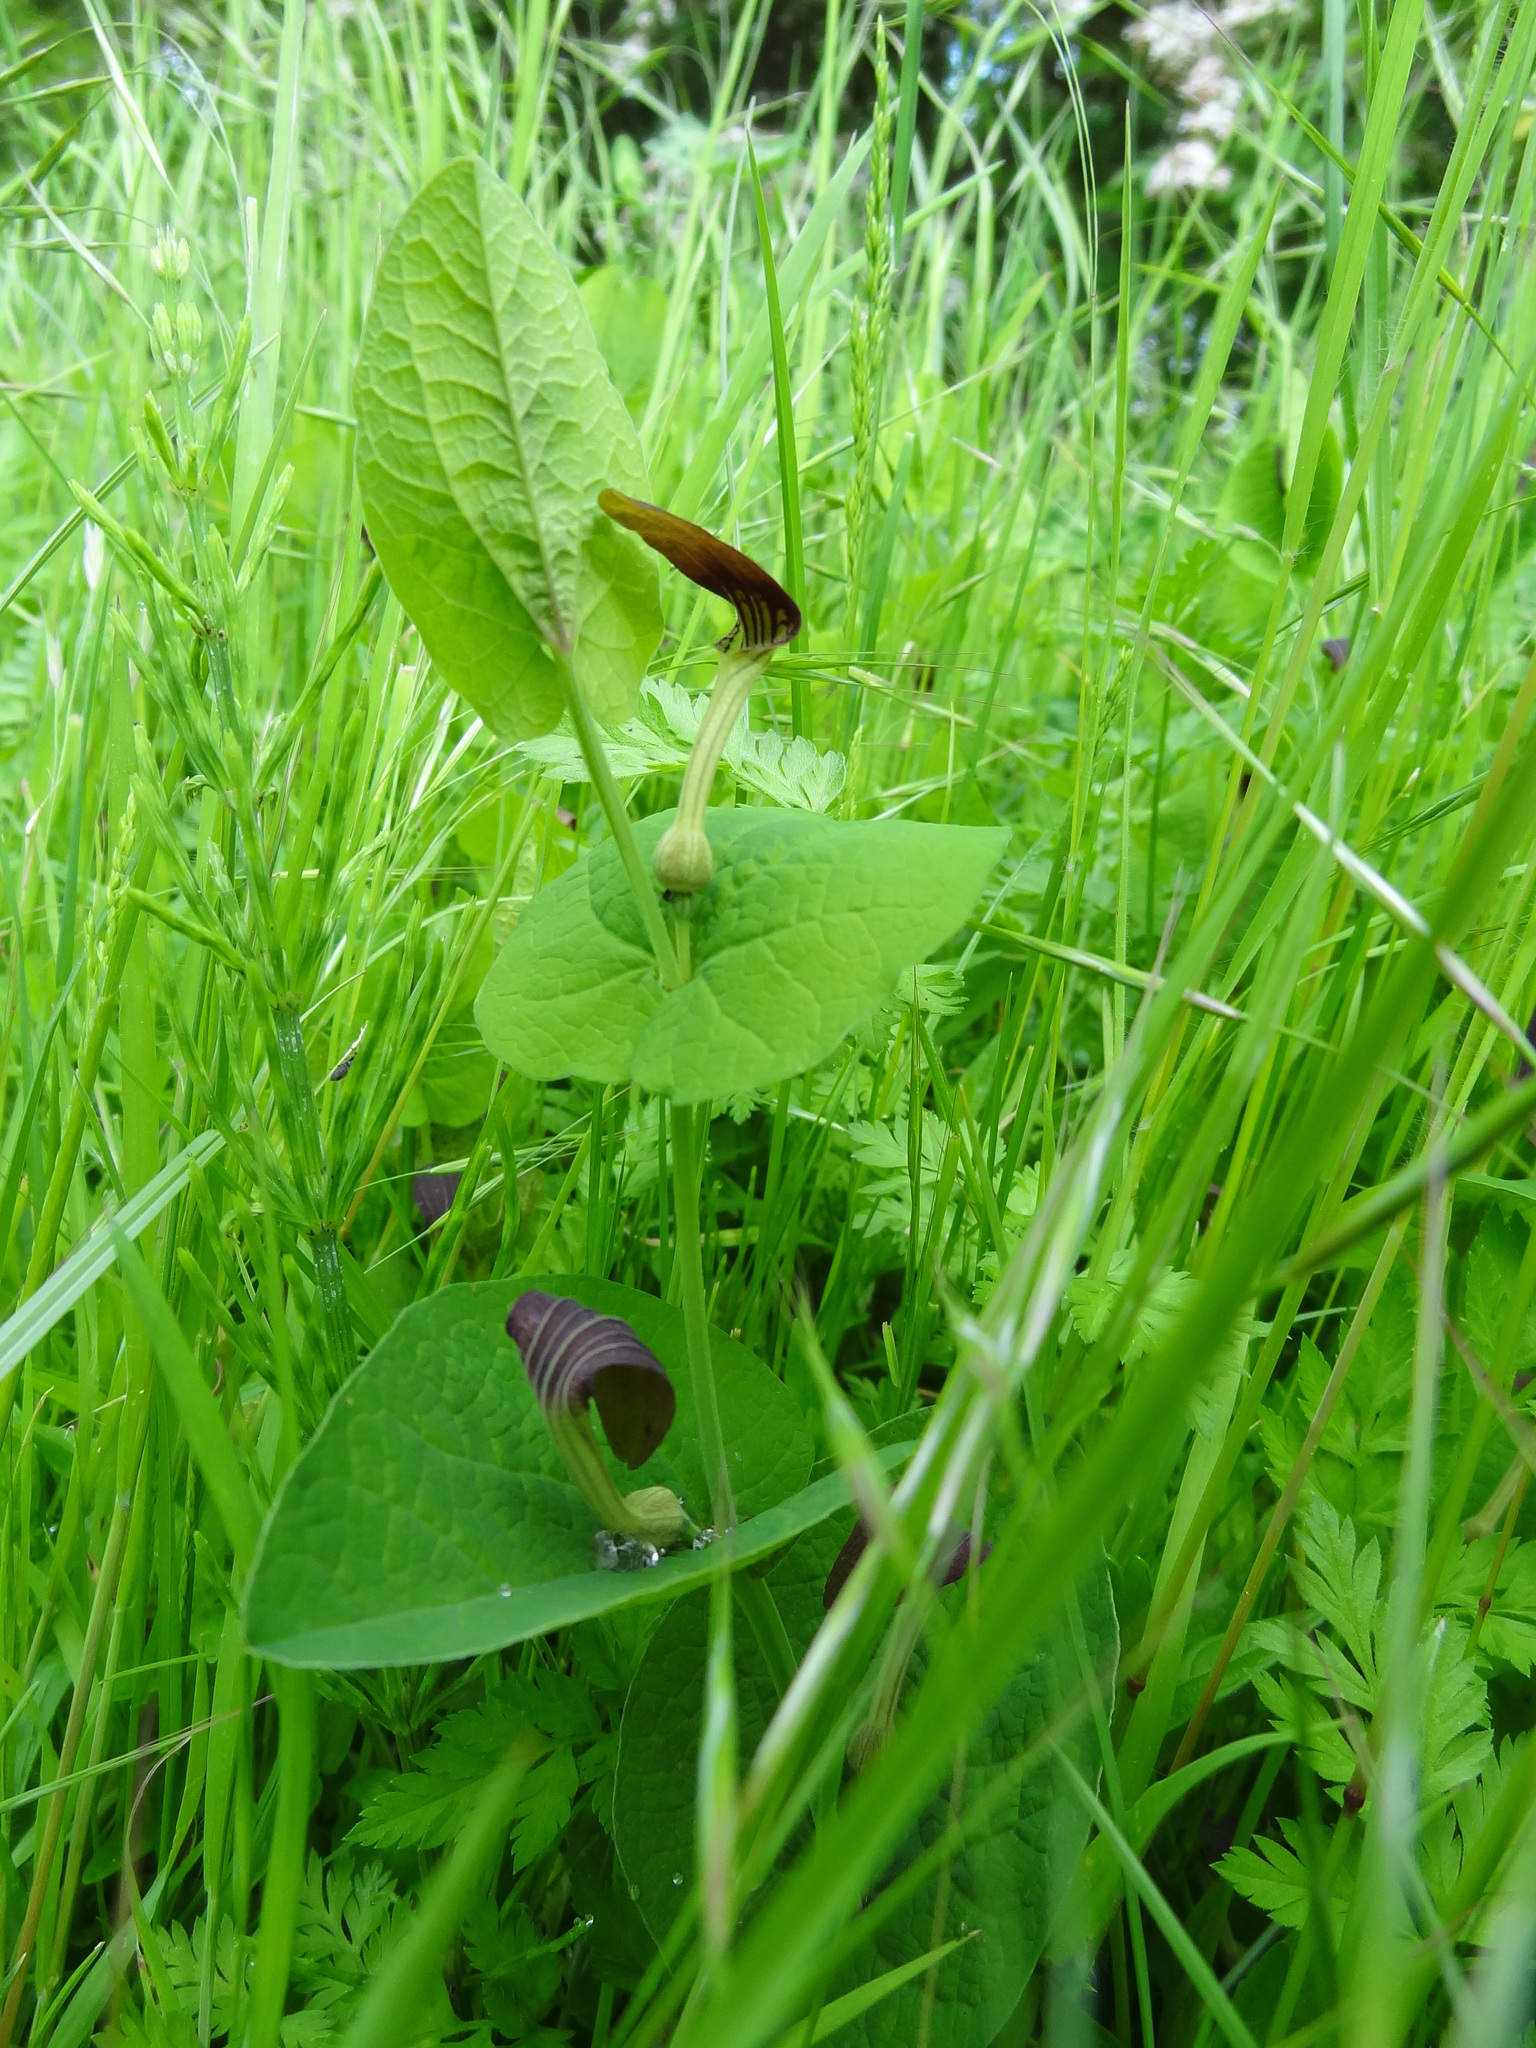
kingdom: Plantae
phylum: Tracheophyta
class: Magnoliopsida
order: Piperales
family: Aristolochiaceae
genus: Aristolochia
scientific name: Aristolochia rotunda
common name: Smearwort
